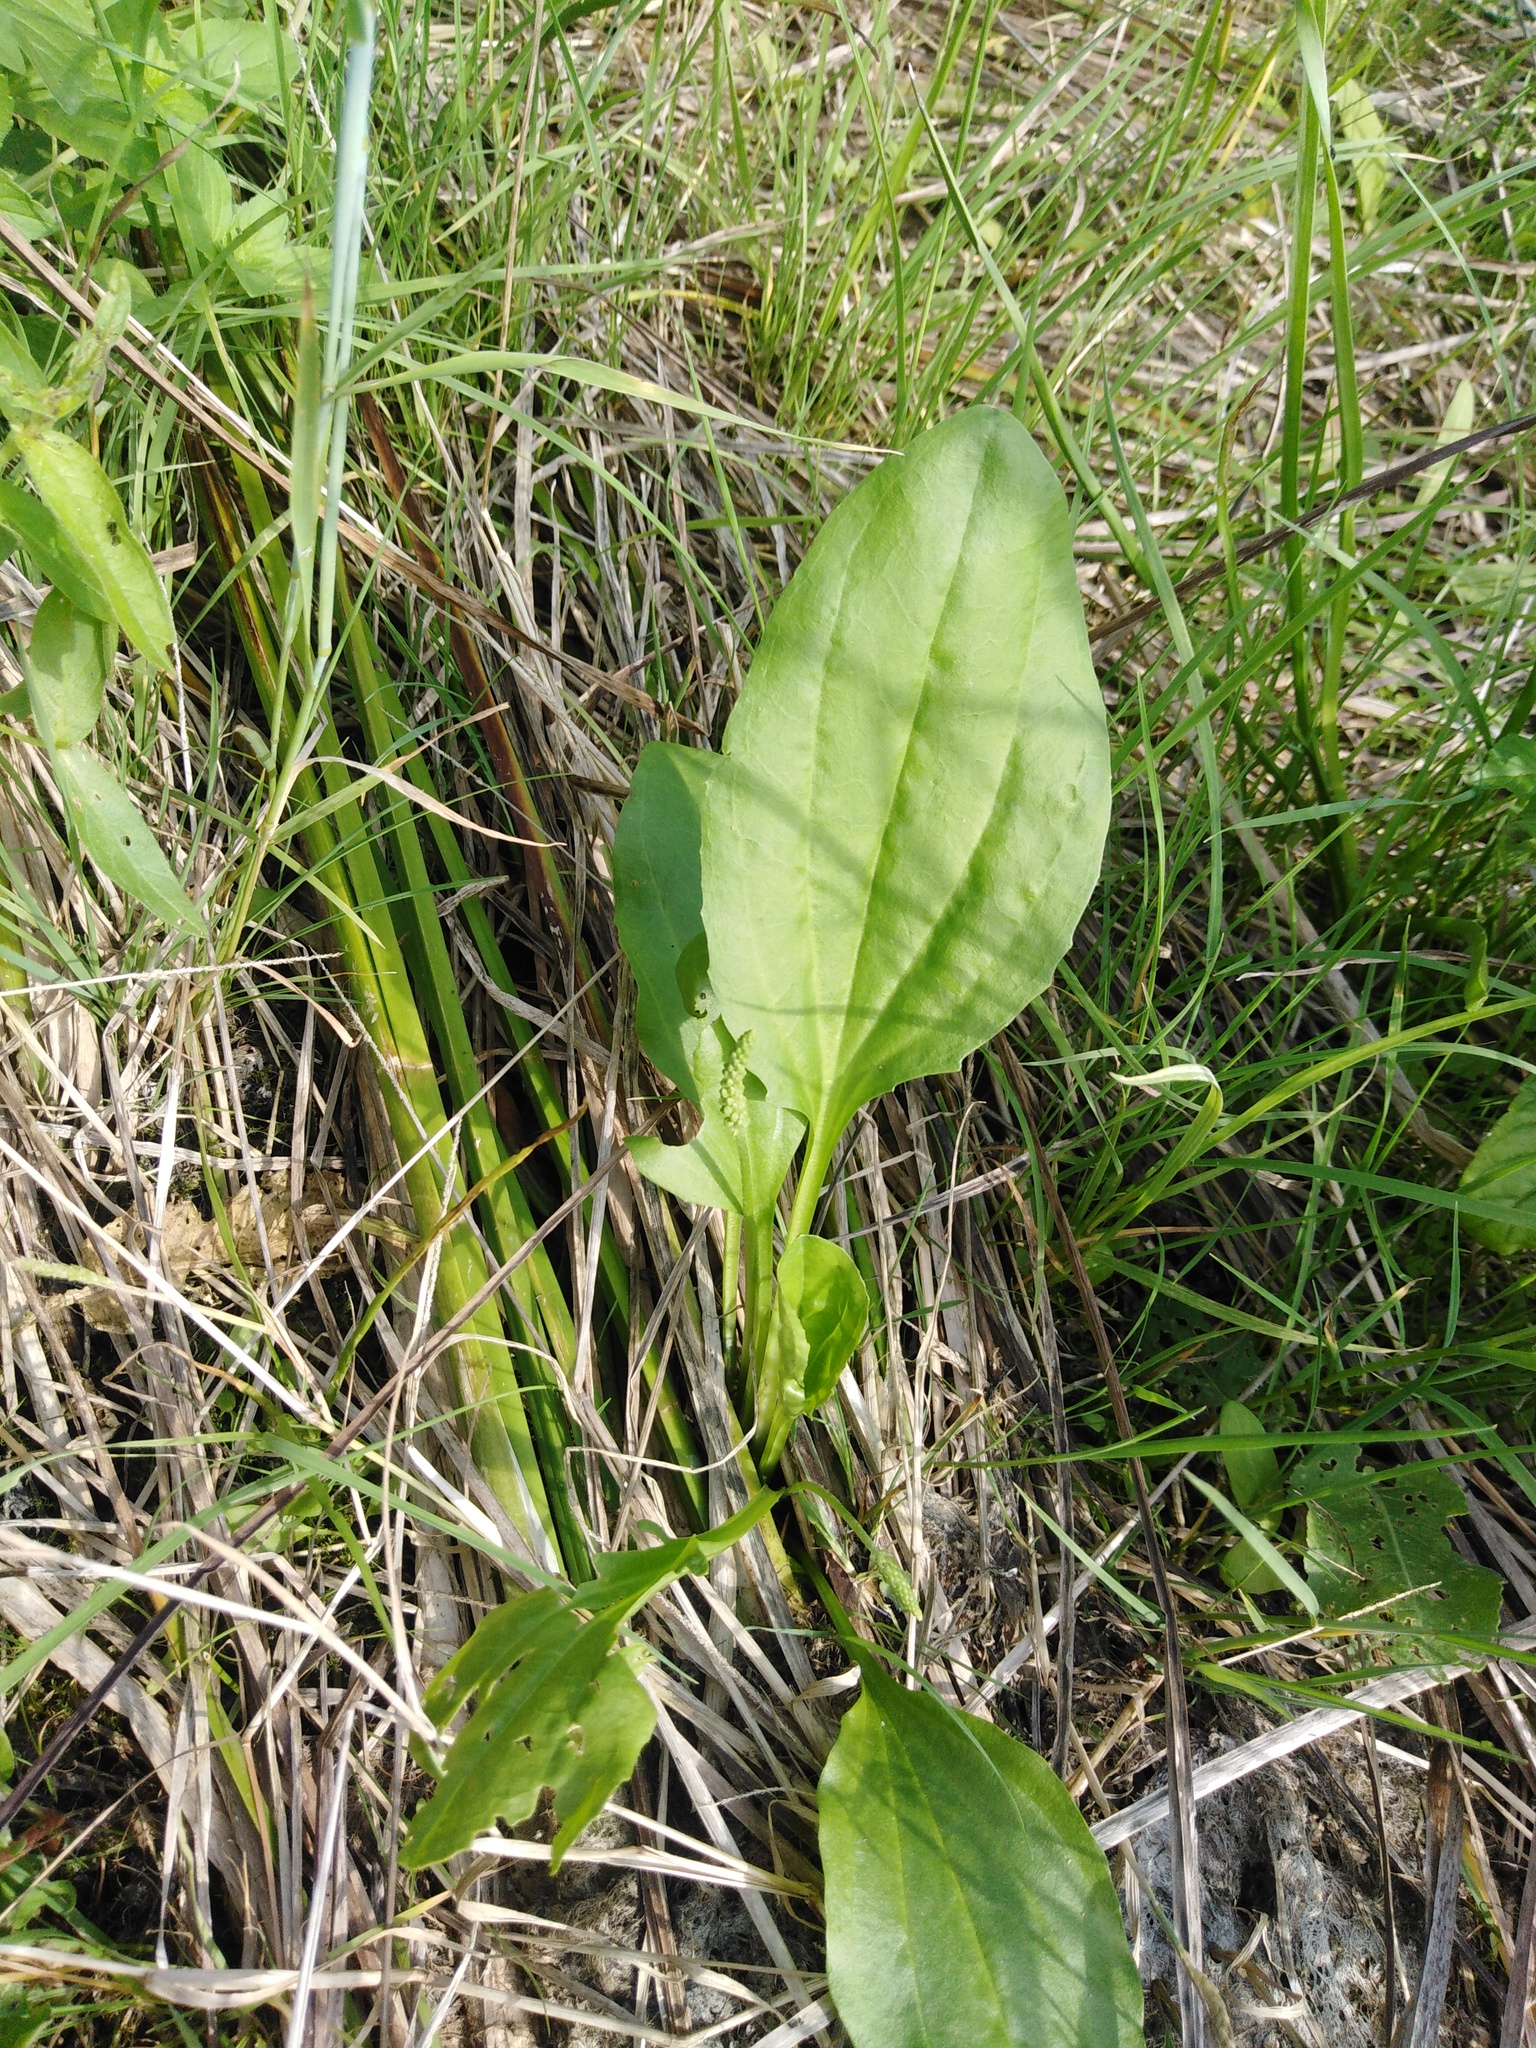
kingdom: Plantae
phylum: Tracheophyta
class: Magnoliopsida
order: Lamiales
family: Plantaginaceae
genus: Plantago
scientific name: Plantago uliginosa
